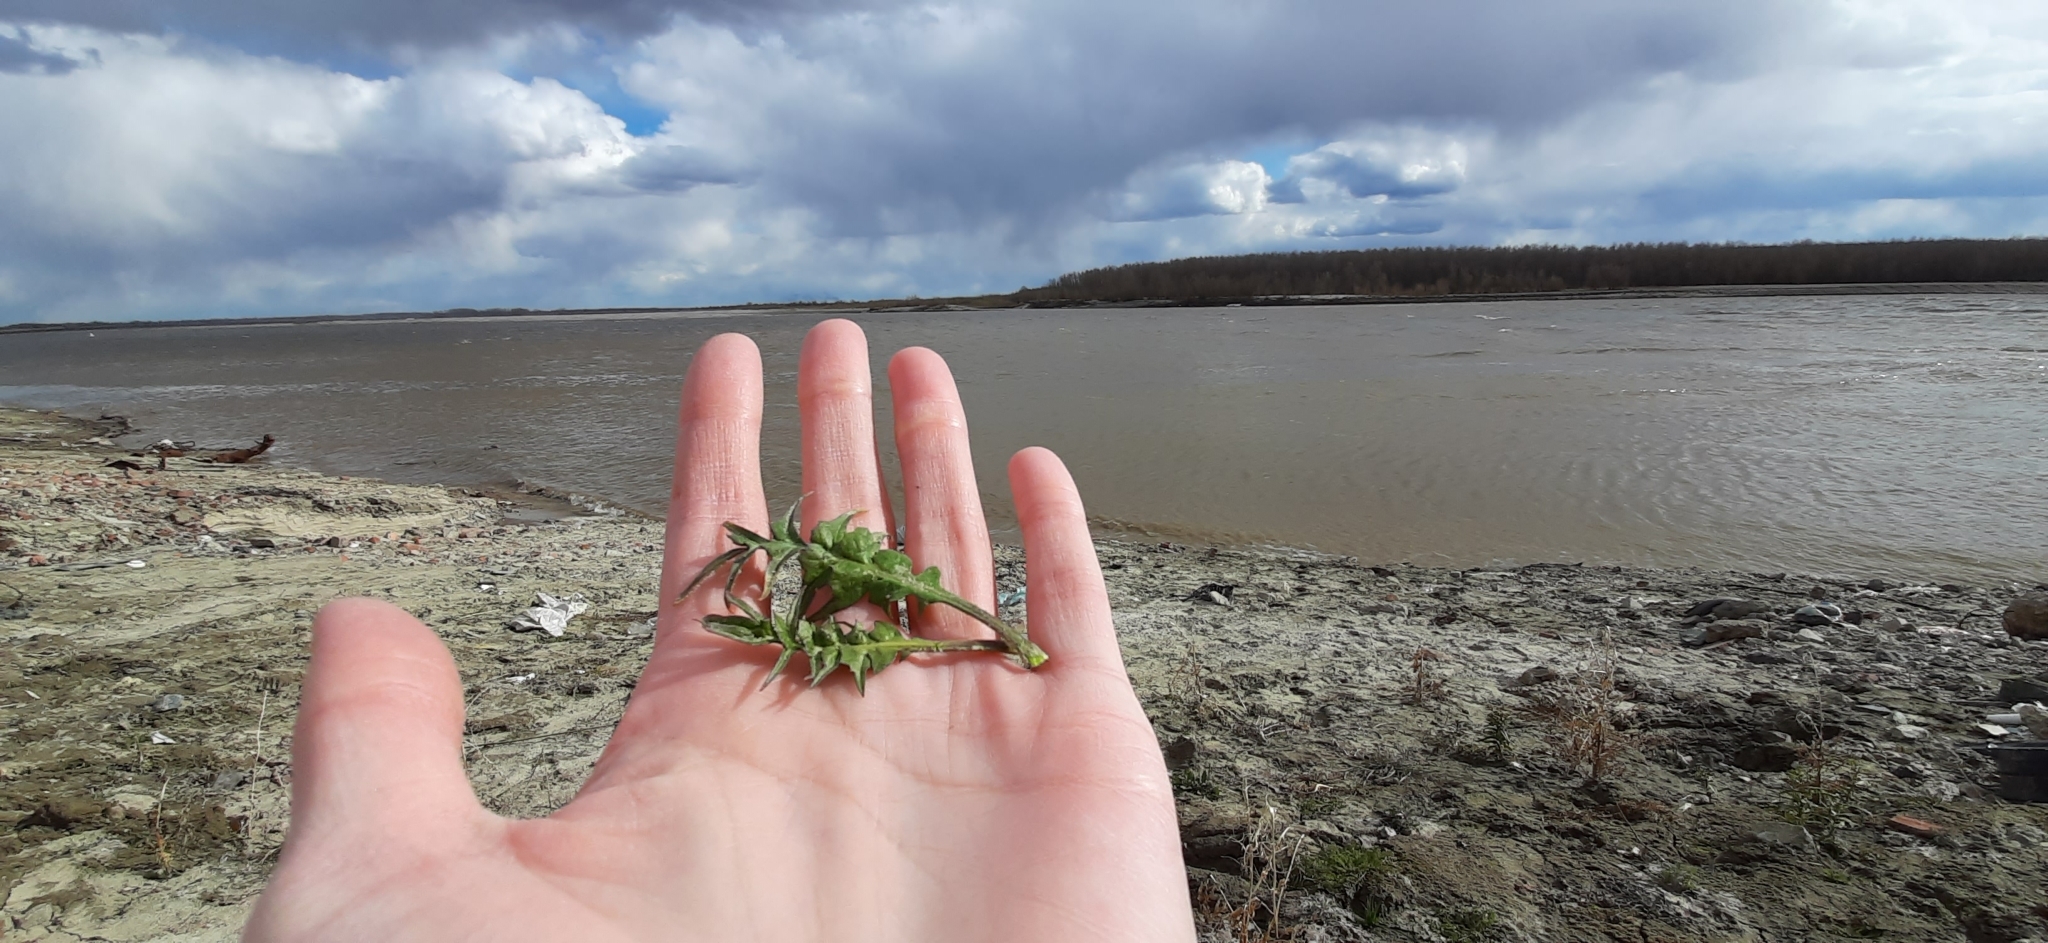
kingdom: Plantae
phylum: Tracheophyta
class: Magnoliopsida
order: Brassicales
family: Brassicaceae
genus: Capsella
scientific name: Capsella bursa-pastoris
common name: Shepherd's purse
